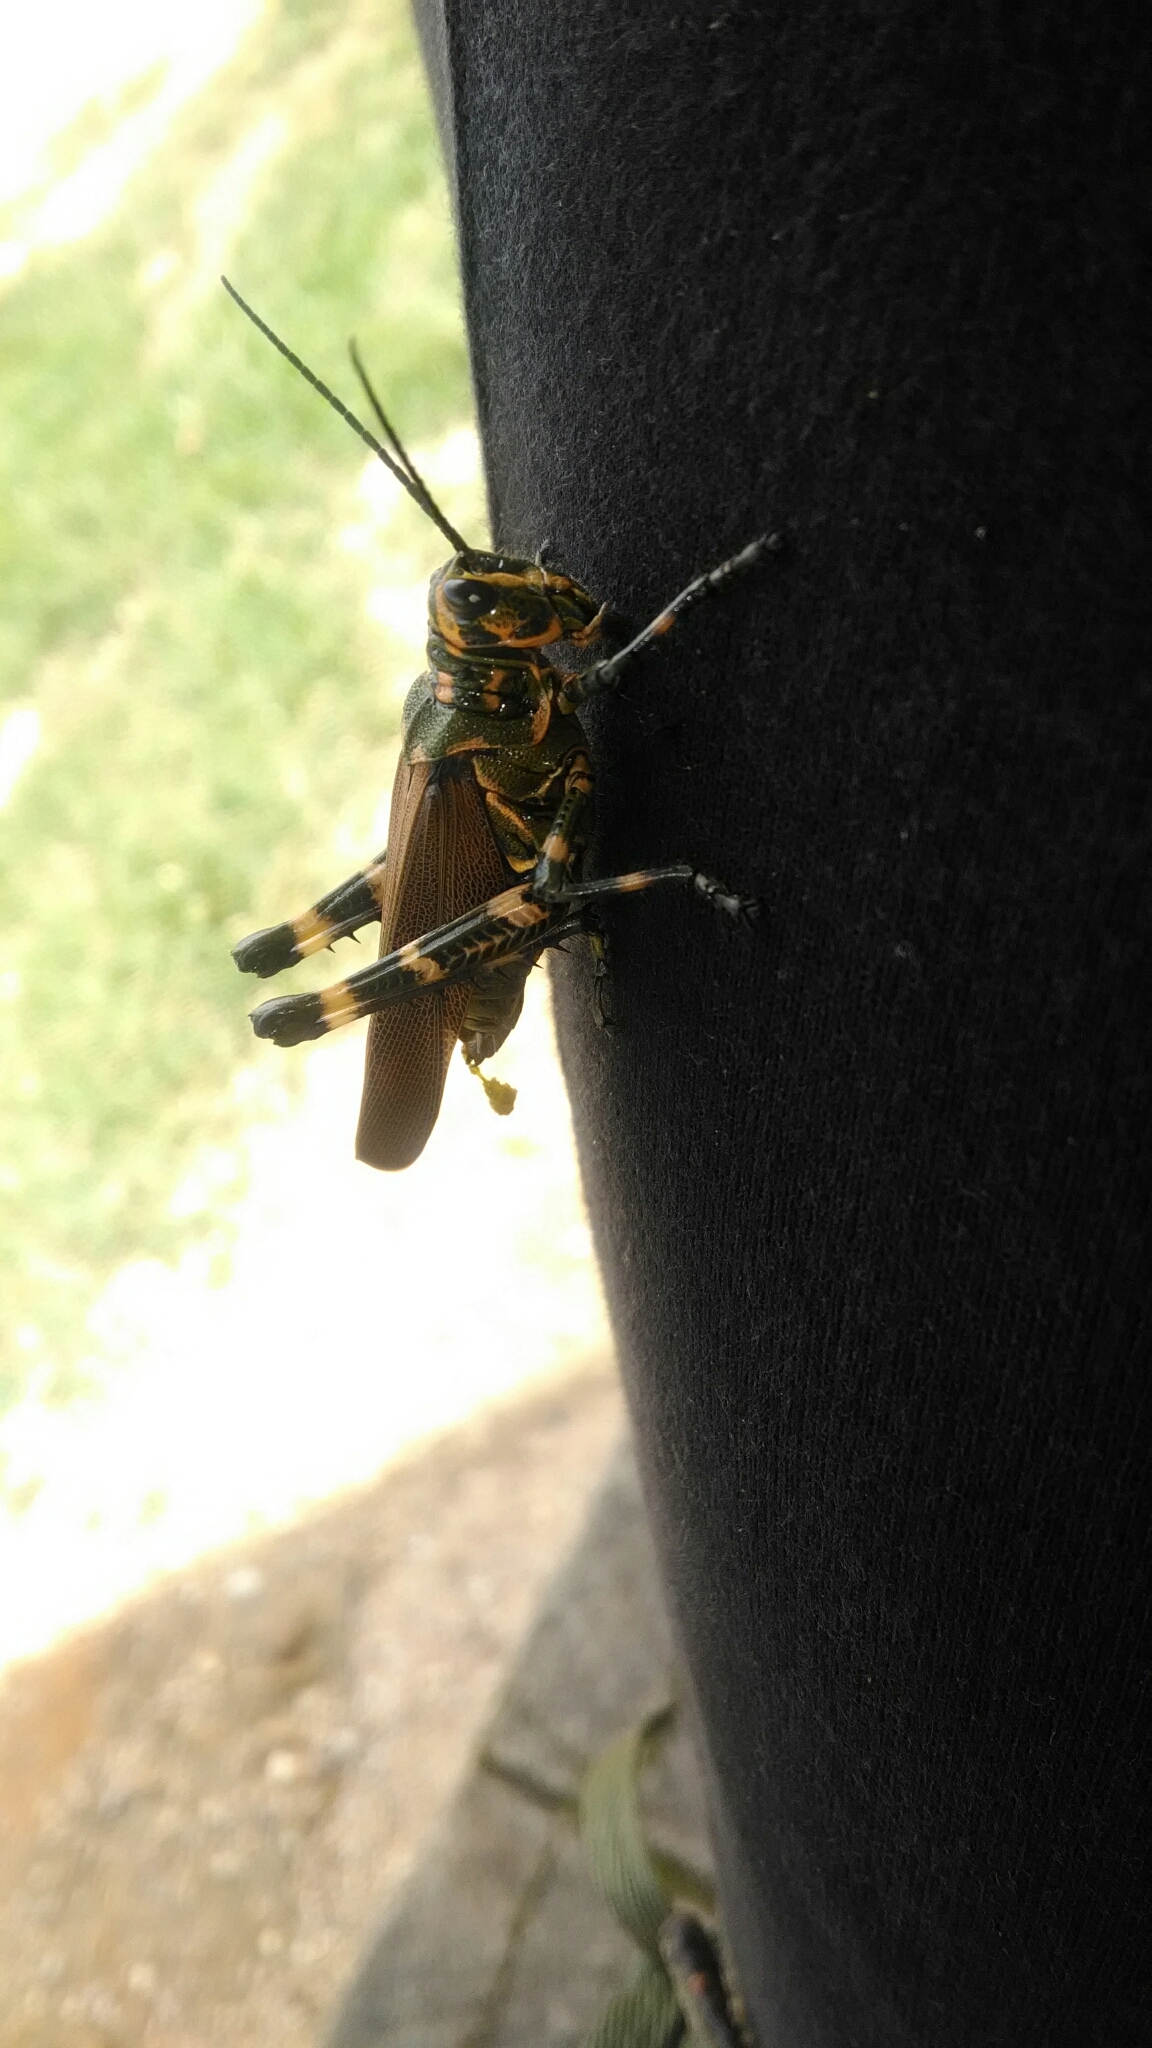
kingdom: Animalia
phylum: Arthropoda
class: Insecta
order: Orthoptera
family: Romaleidae
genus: Chromacris
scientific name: Chromacris speciosa
